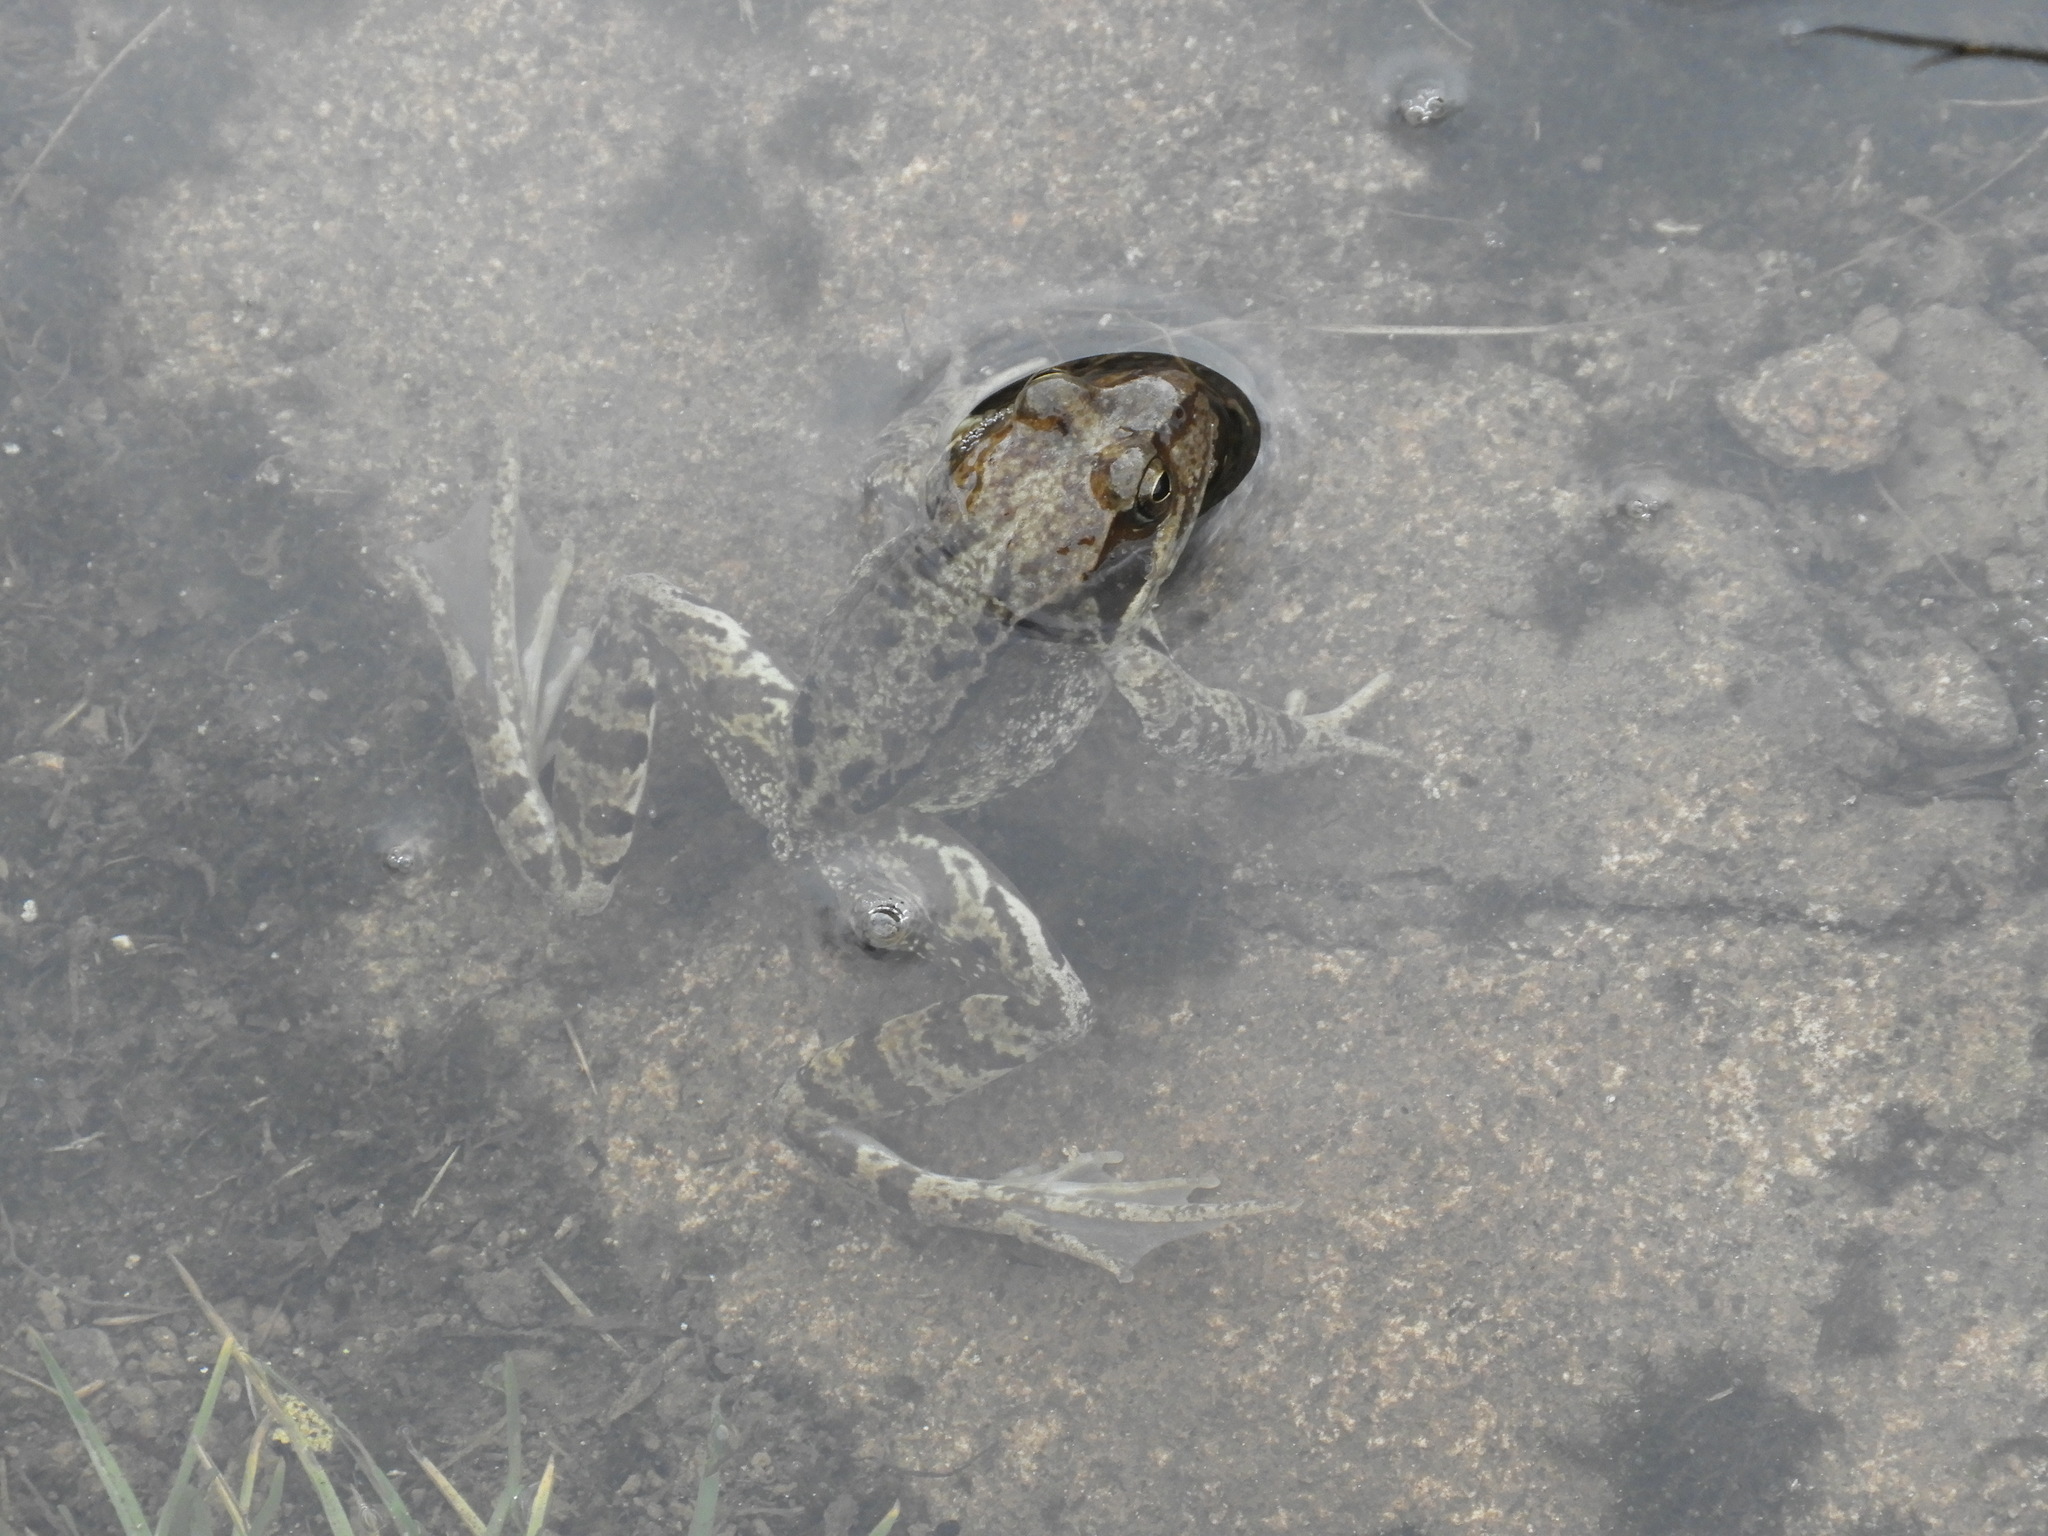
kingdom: Animalia
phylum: Chordata
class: Amphibia
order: Anura
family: Ranidae
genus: Rana
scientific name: Rana temporaria
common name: Common frog
